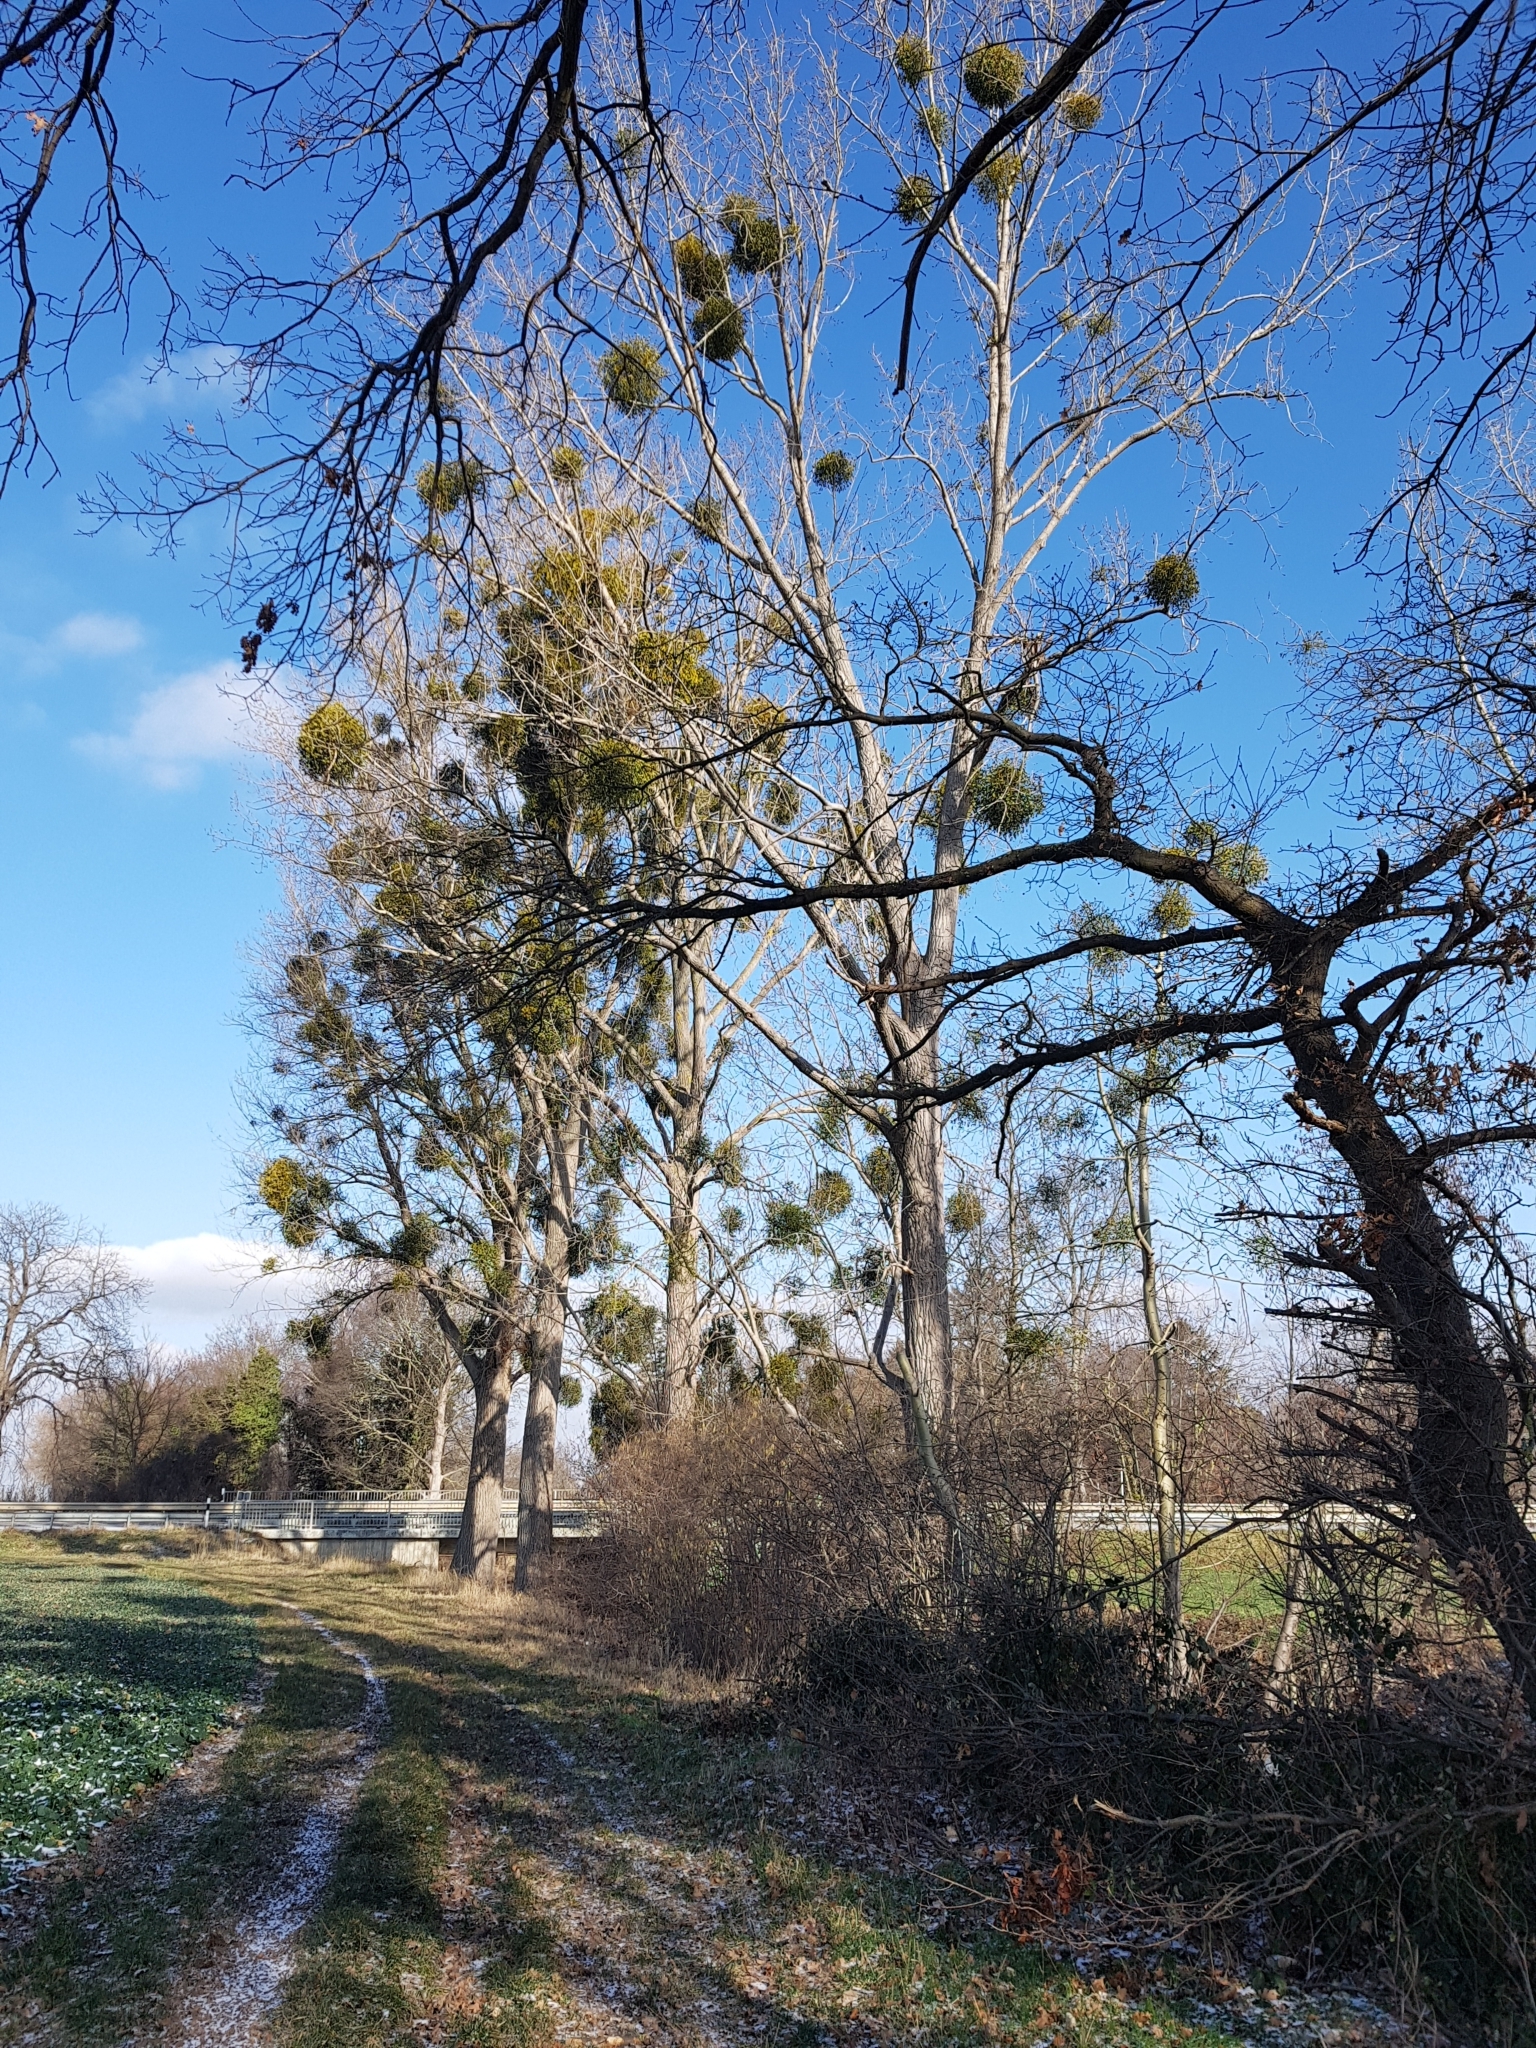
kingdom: Plantae
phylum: Tracheophyta
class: Magnoliopsida
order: Santalales
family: Viscaceae
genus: Viscum
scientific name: Viscum album
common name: Mistletoe
